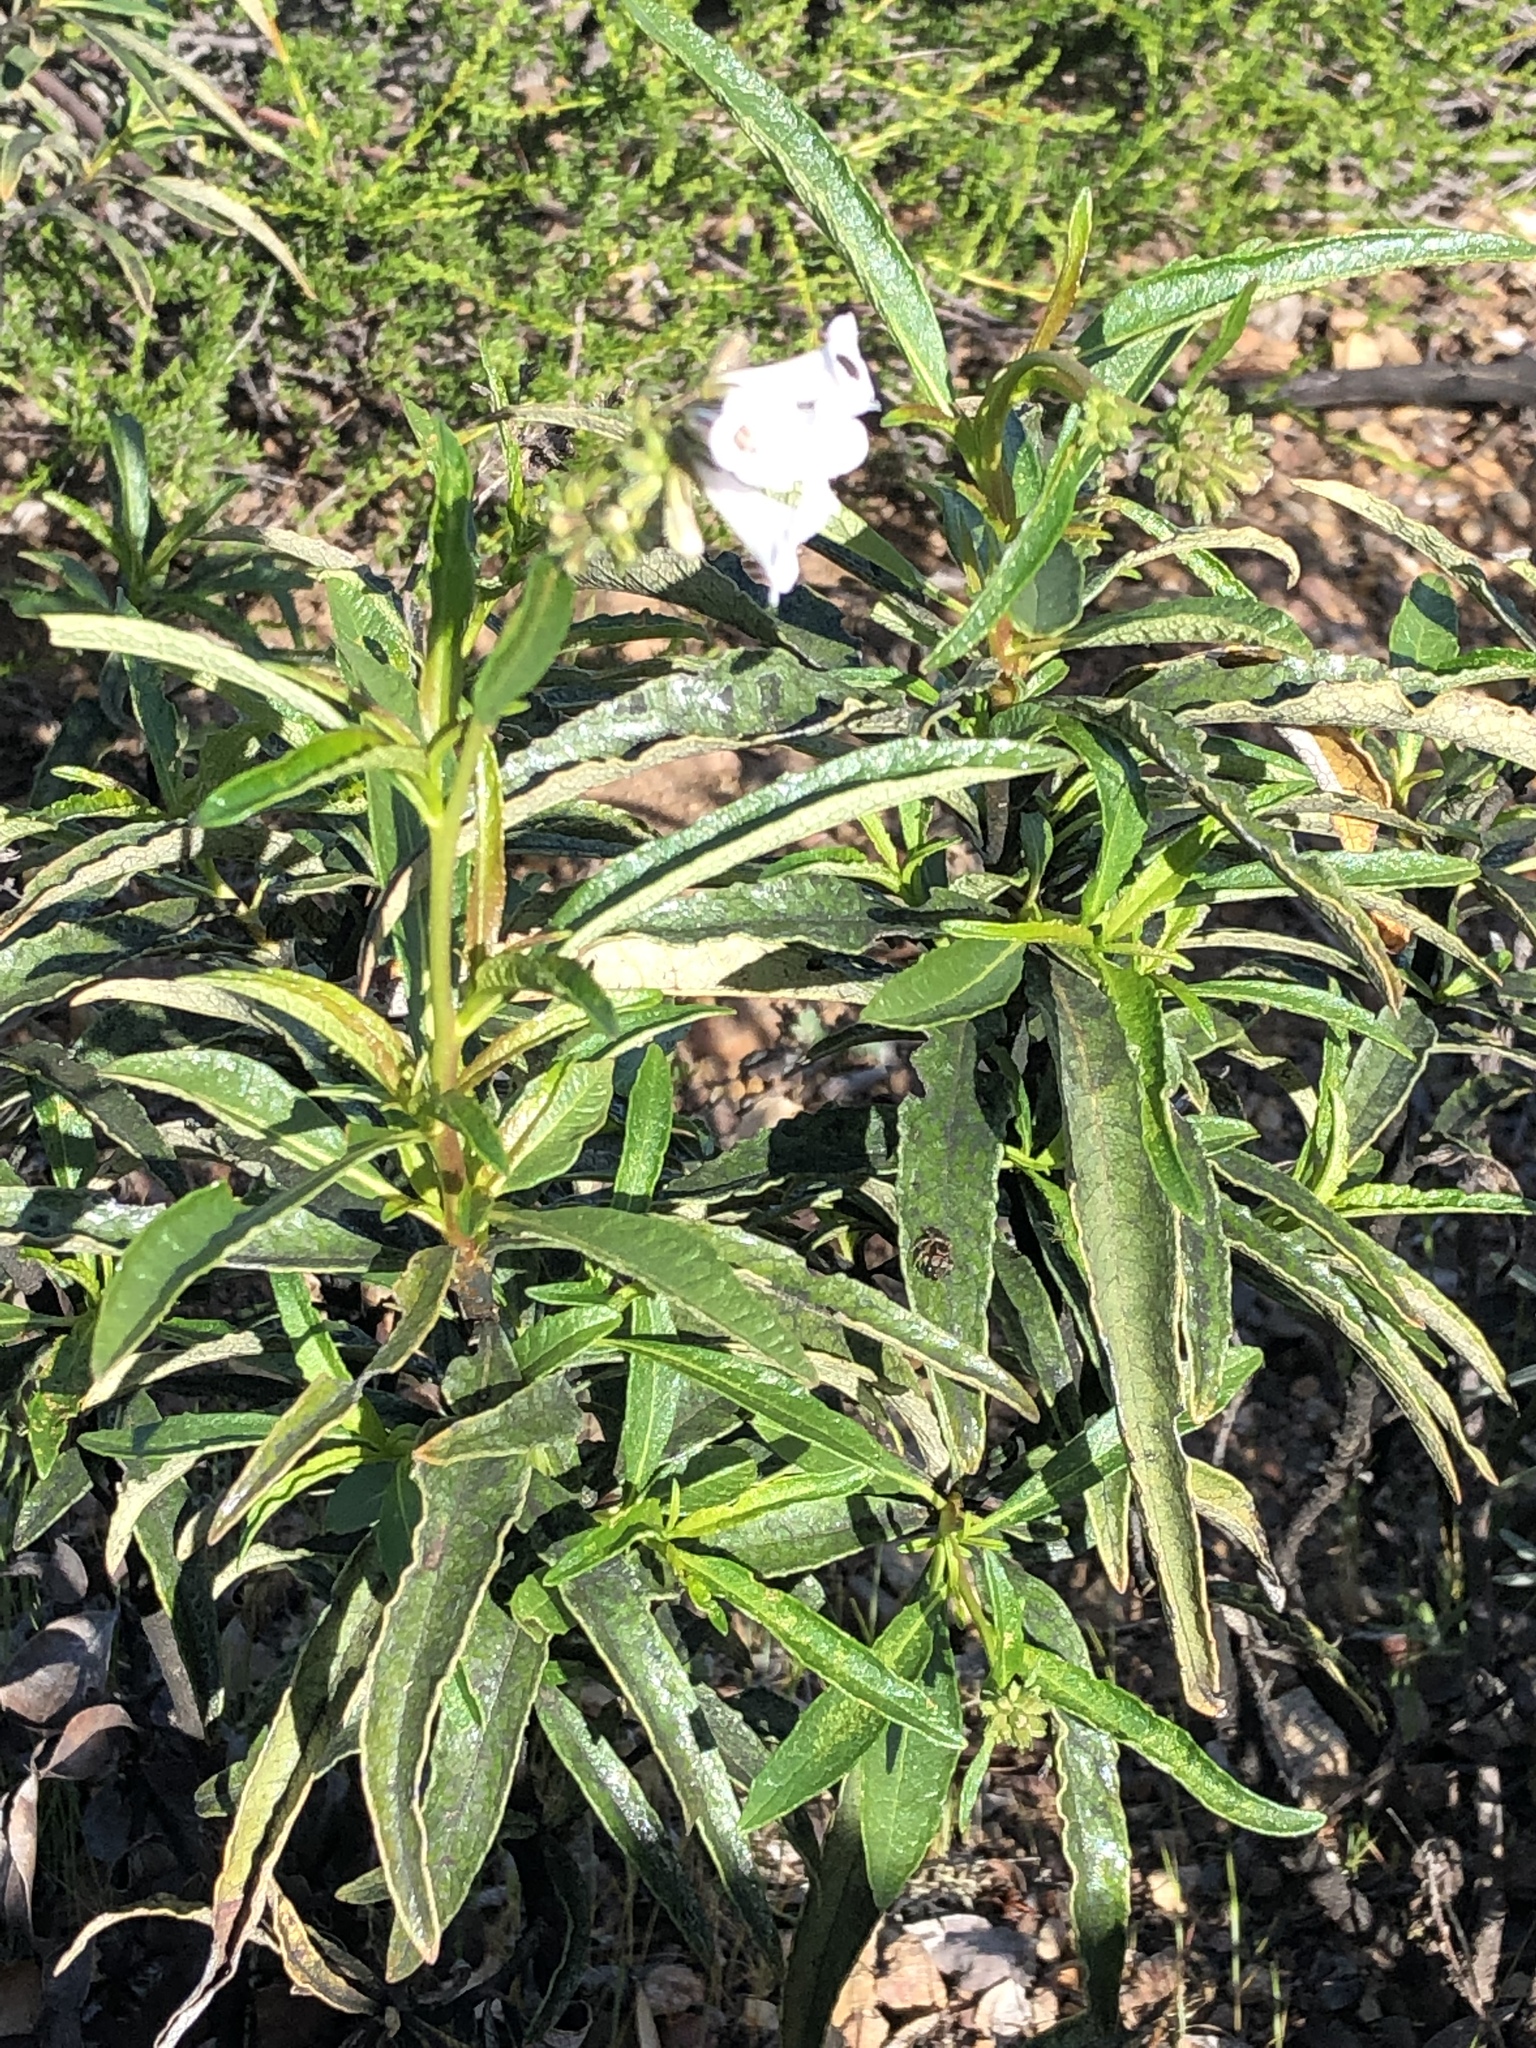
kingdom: Plantae
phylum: Tracheophyta
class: Magnoliopsida
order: Boraginales
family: Namaceae
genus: Eriodictyon
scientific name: Eriodictyon californicum
